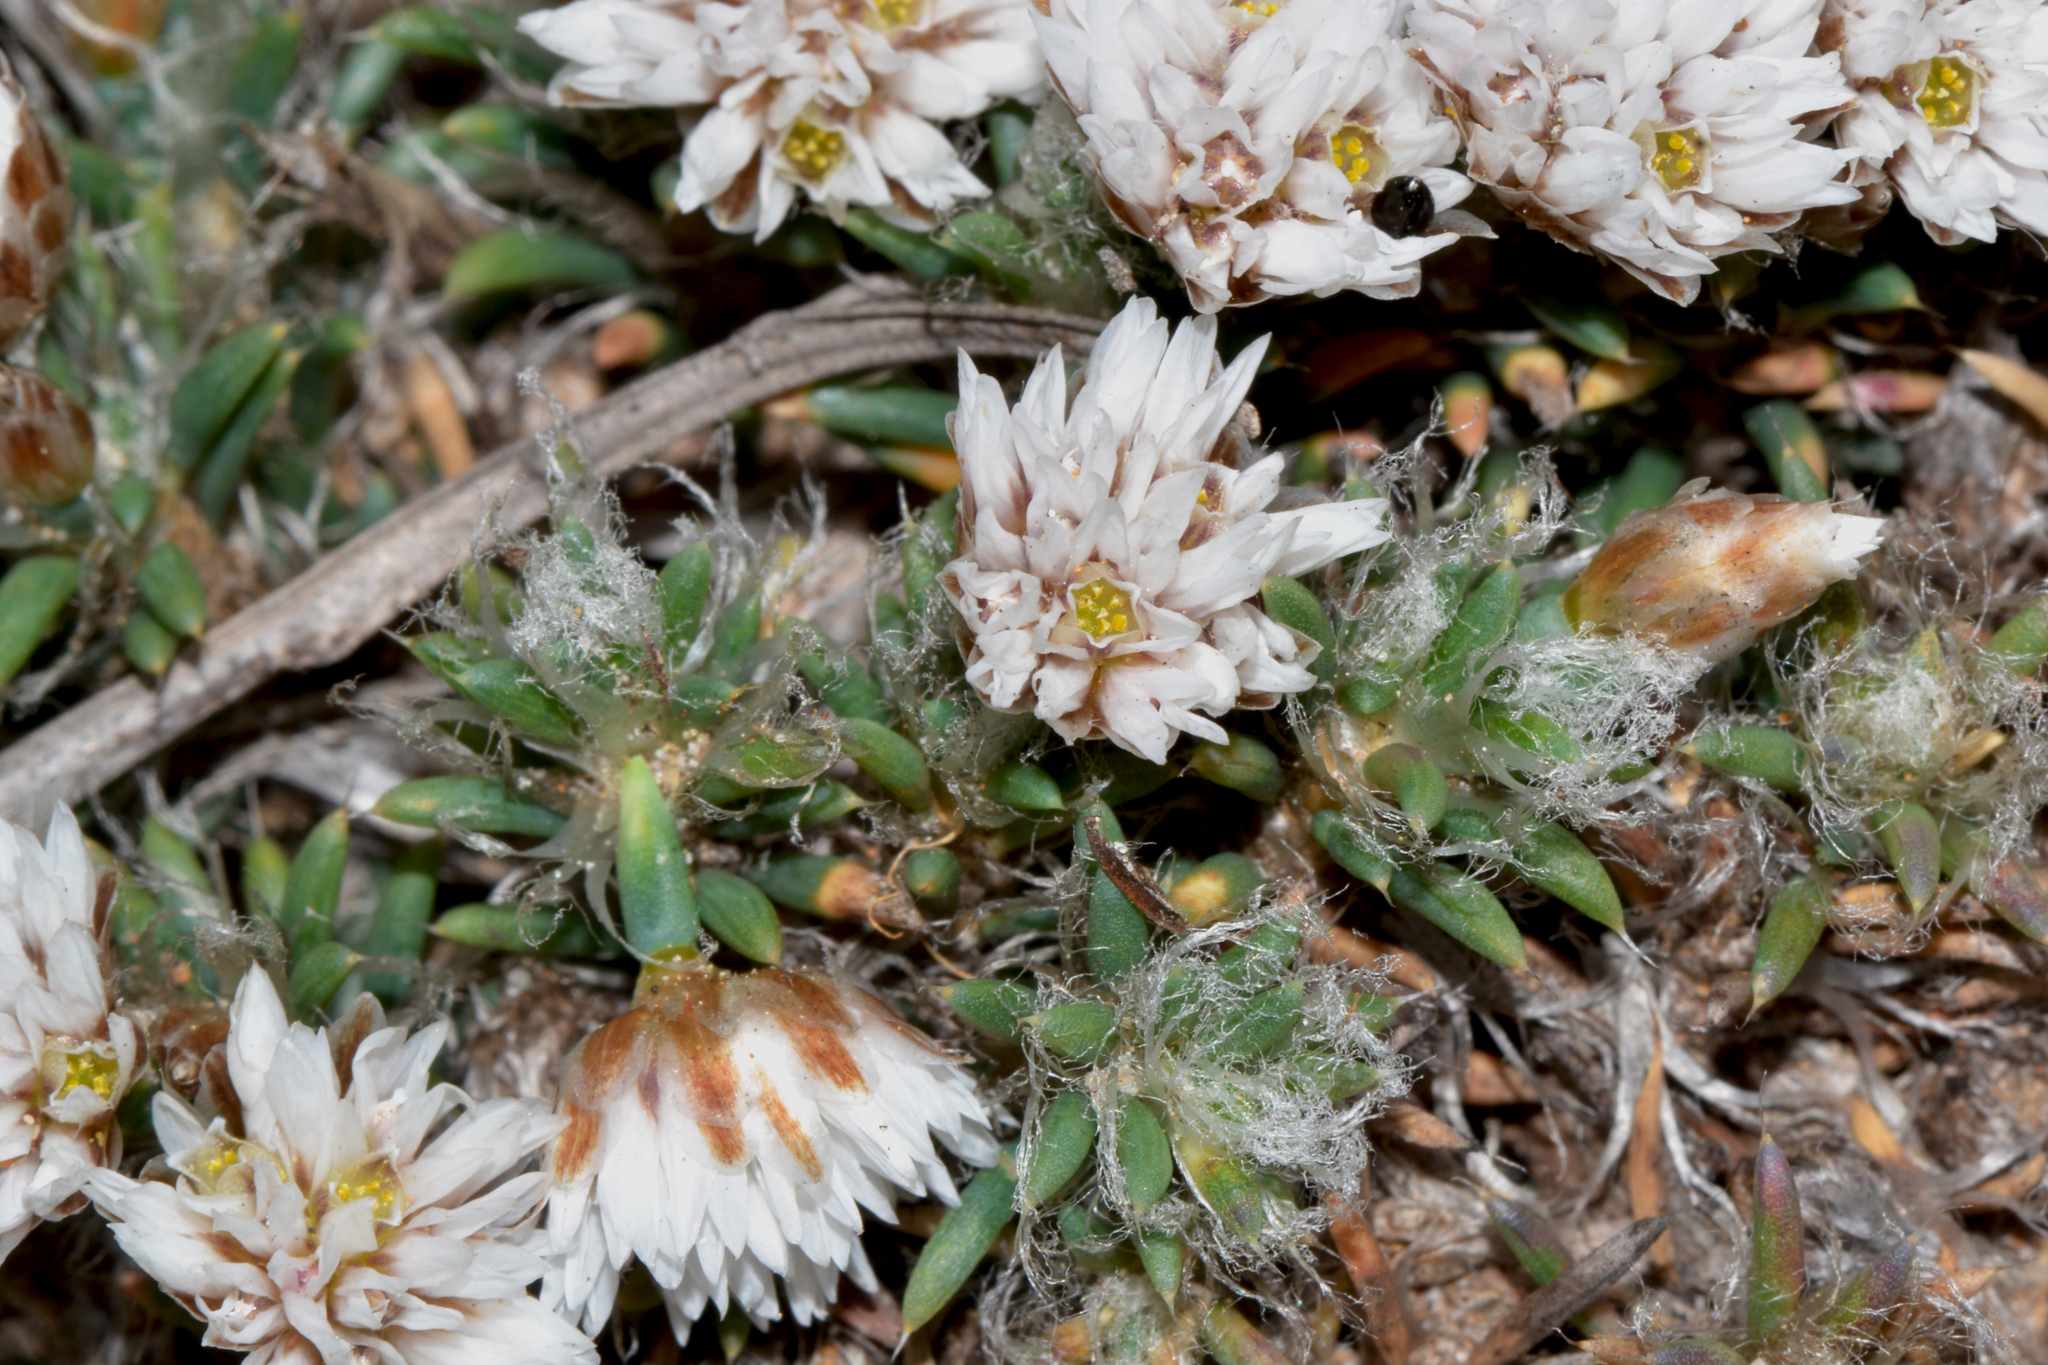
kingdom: Plantae
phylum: Tracheophyta
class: Liliopsida
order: Asparagales
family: Asparagaceae
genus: Laxmannia
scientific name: Laxmannia brachyphylla
